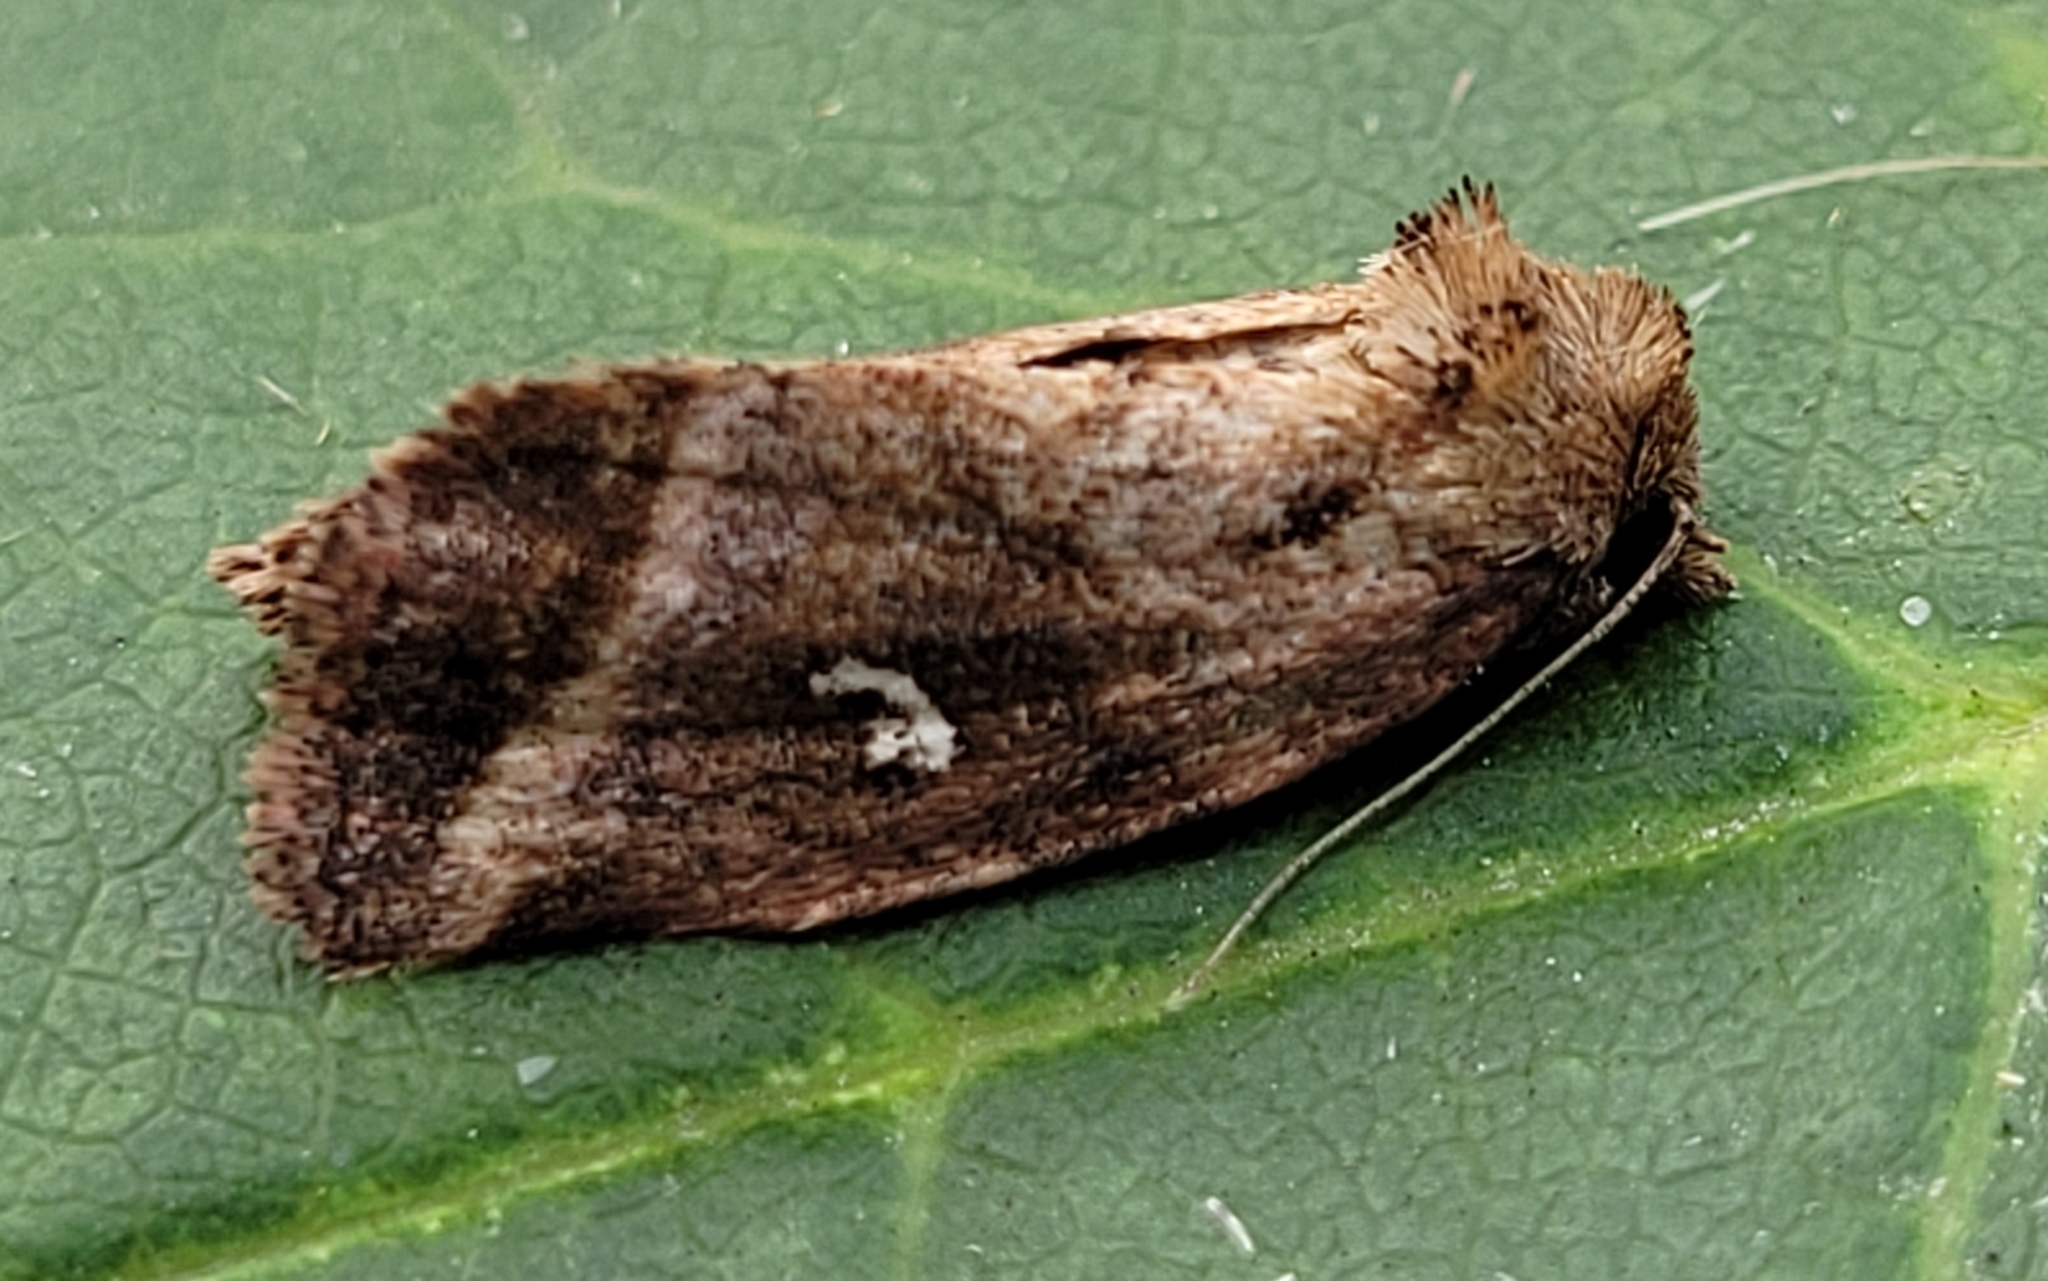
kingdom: Animalia
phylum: Arthropoda
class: Insecta
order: Lepidoptera
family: Noctuidae
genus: Photedes
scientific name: Photedes includens
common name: Included cordgrass borer moth
